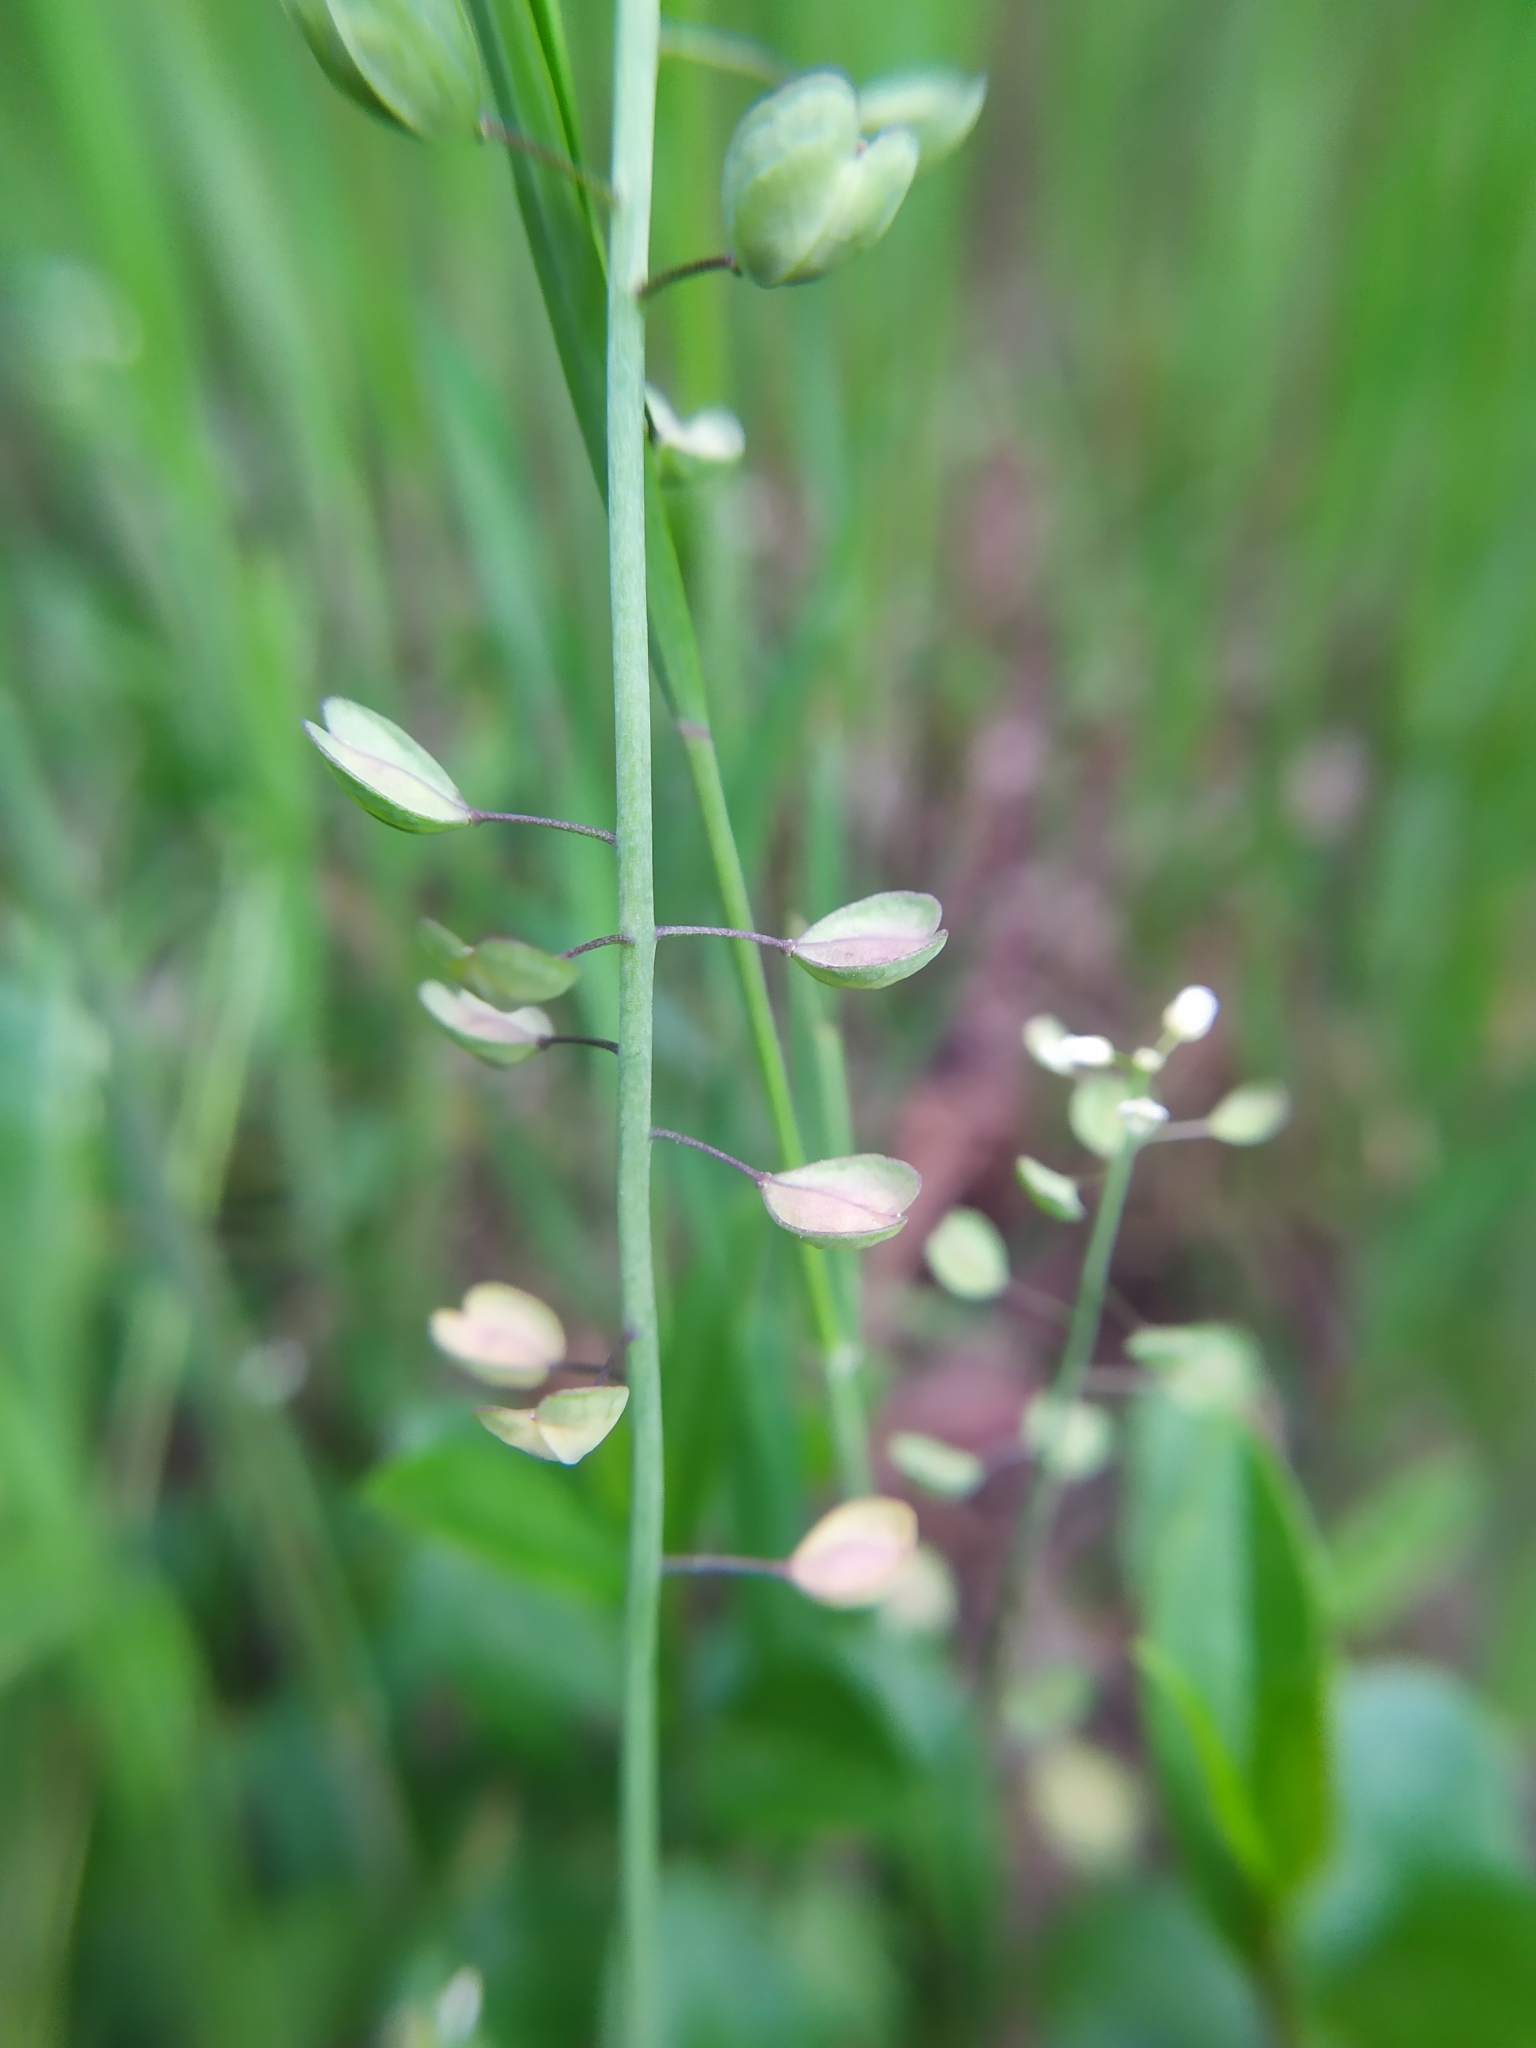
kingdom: Plantae
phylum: Tracheophyta
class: Magnoliopsida
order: Brassicales
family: Brassicaceae
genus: Noccaea
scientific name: Noccaea perfoliata
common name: Perfoliate pennycress
